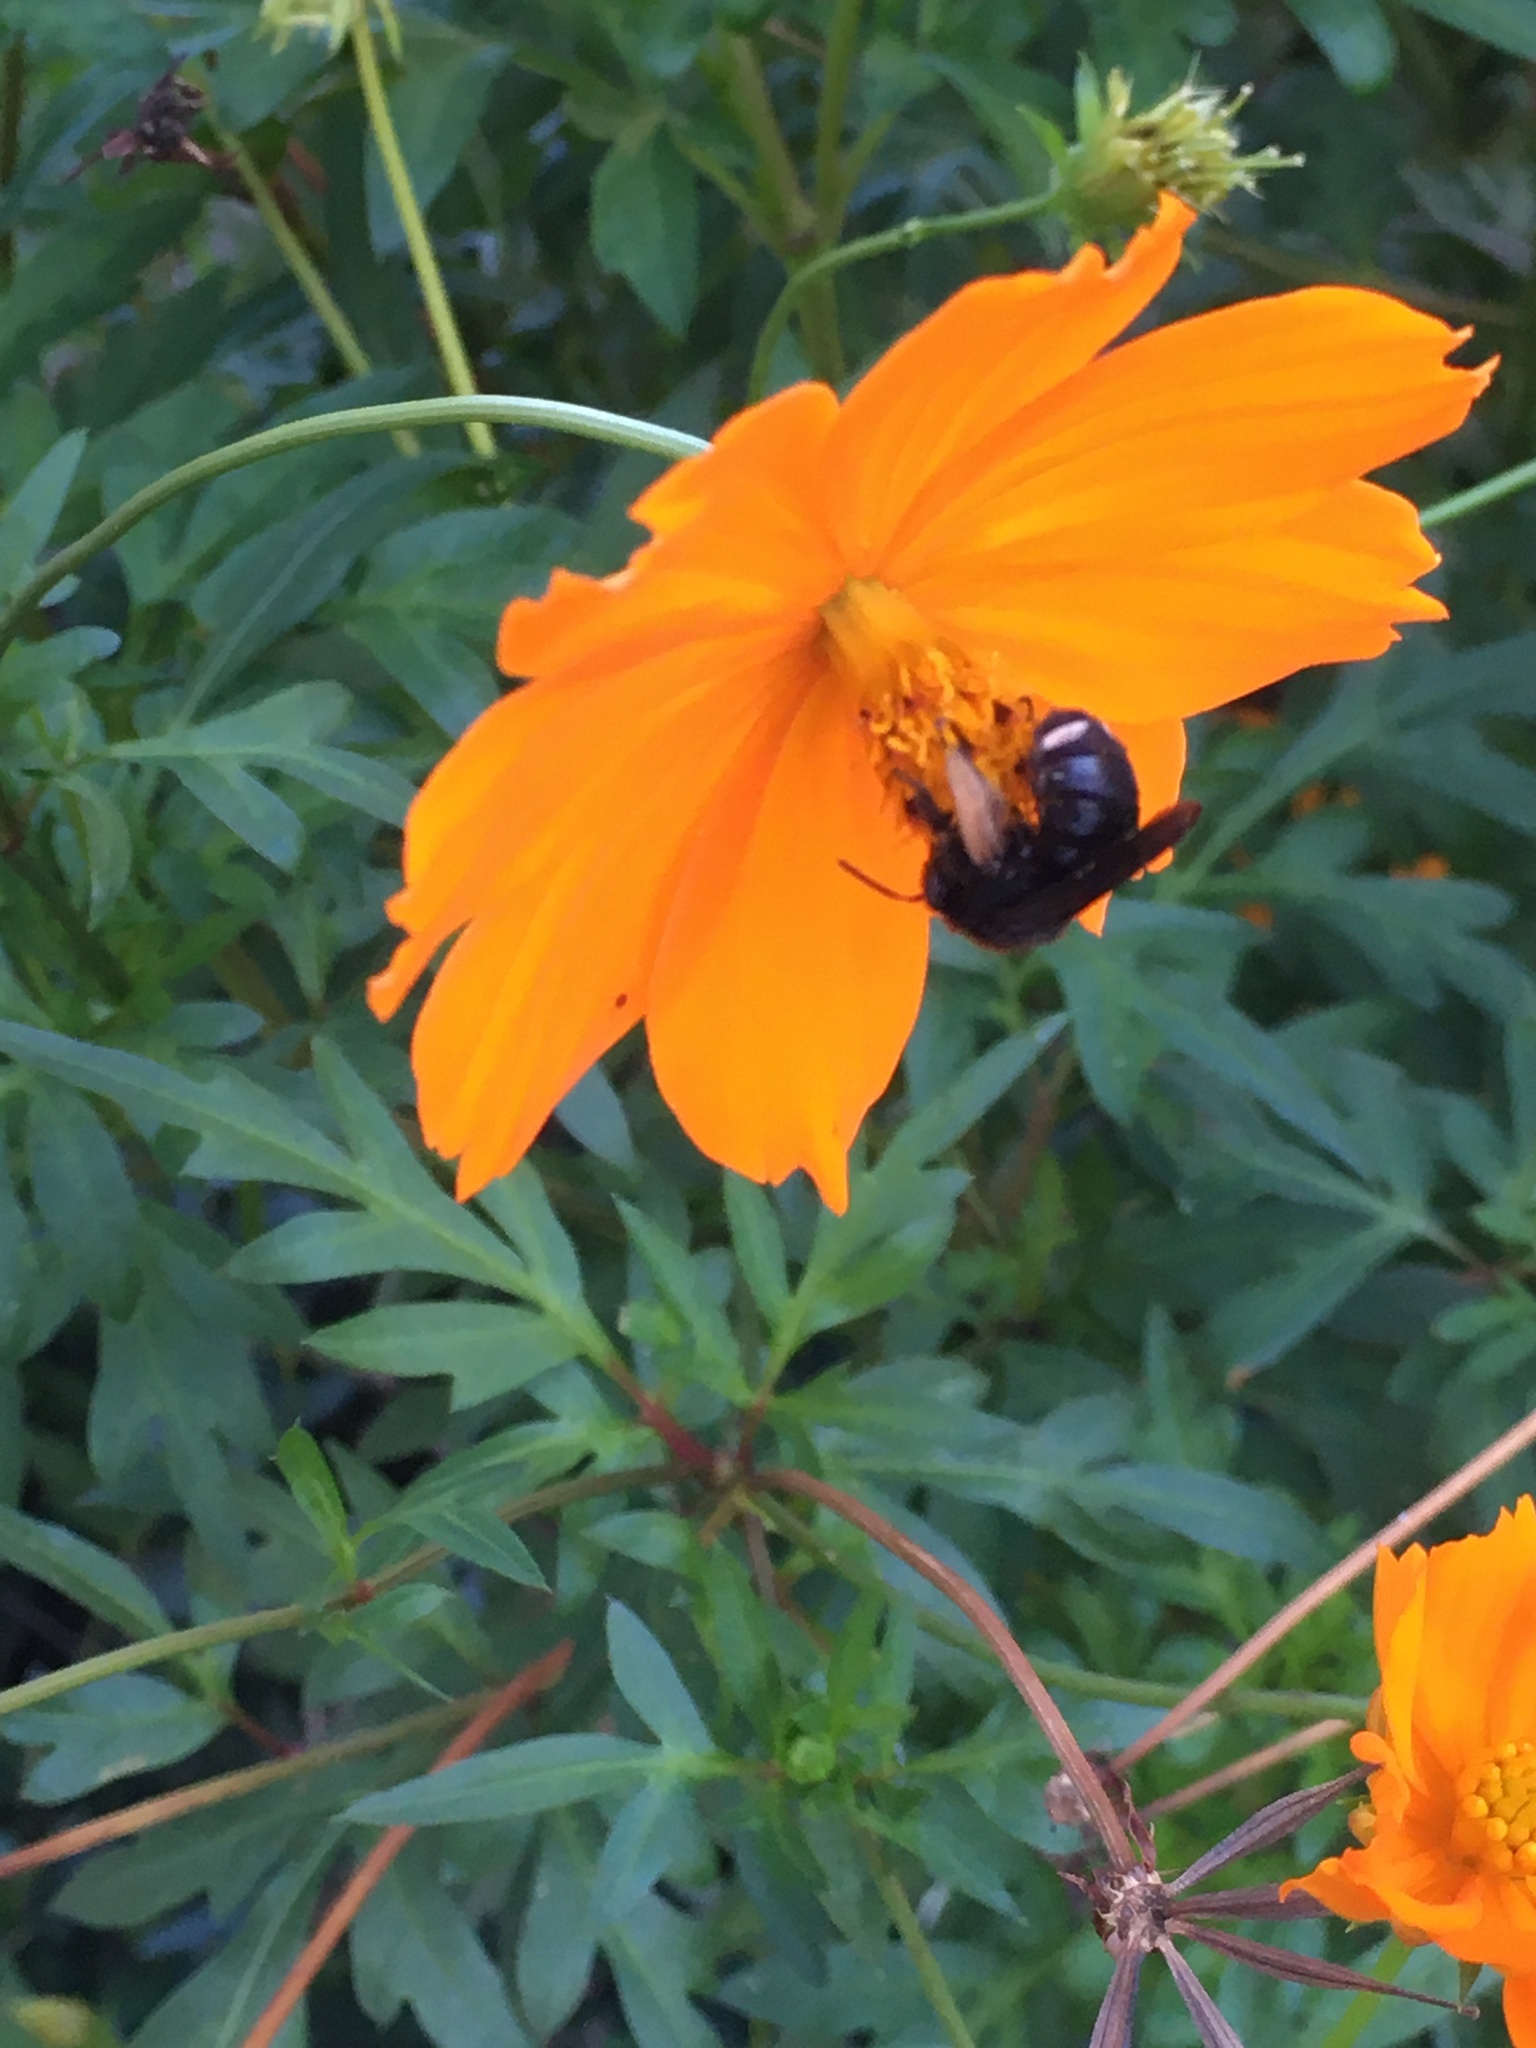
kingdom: Animalia
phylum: Arthropoda
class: Insecta
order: Hymenoptera
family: Apidae
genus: Melissodes
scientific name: Melissodes bimaculatus
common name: Two-spotted long-horned bee
